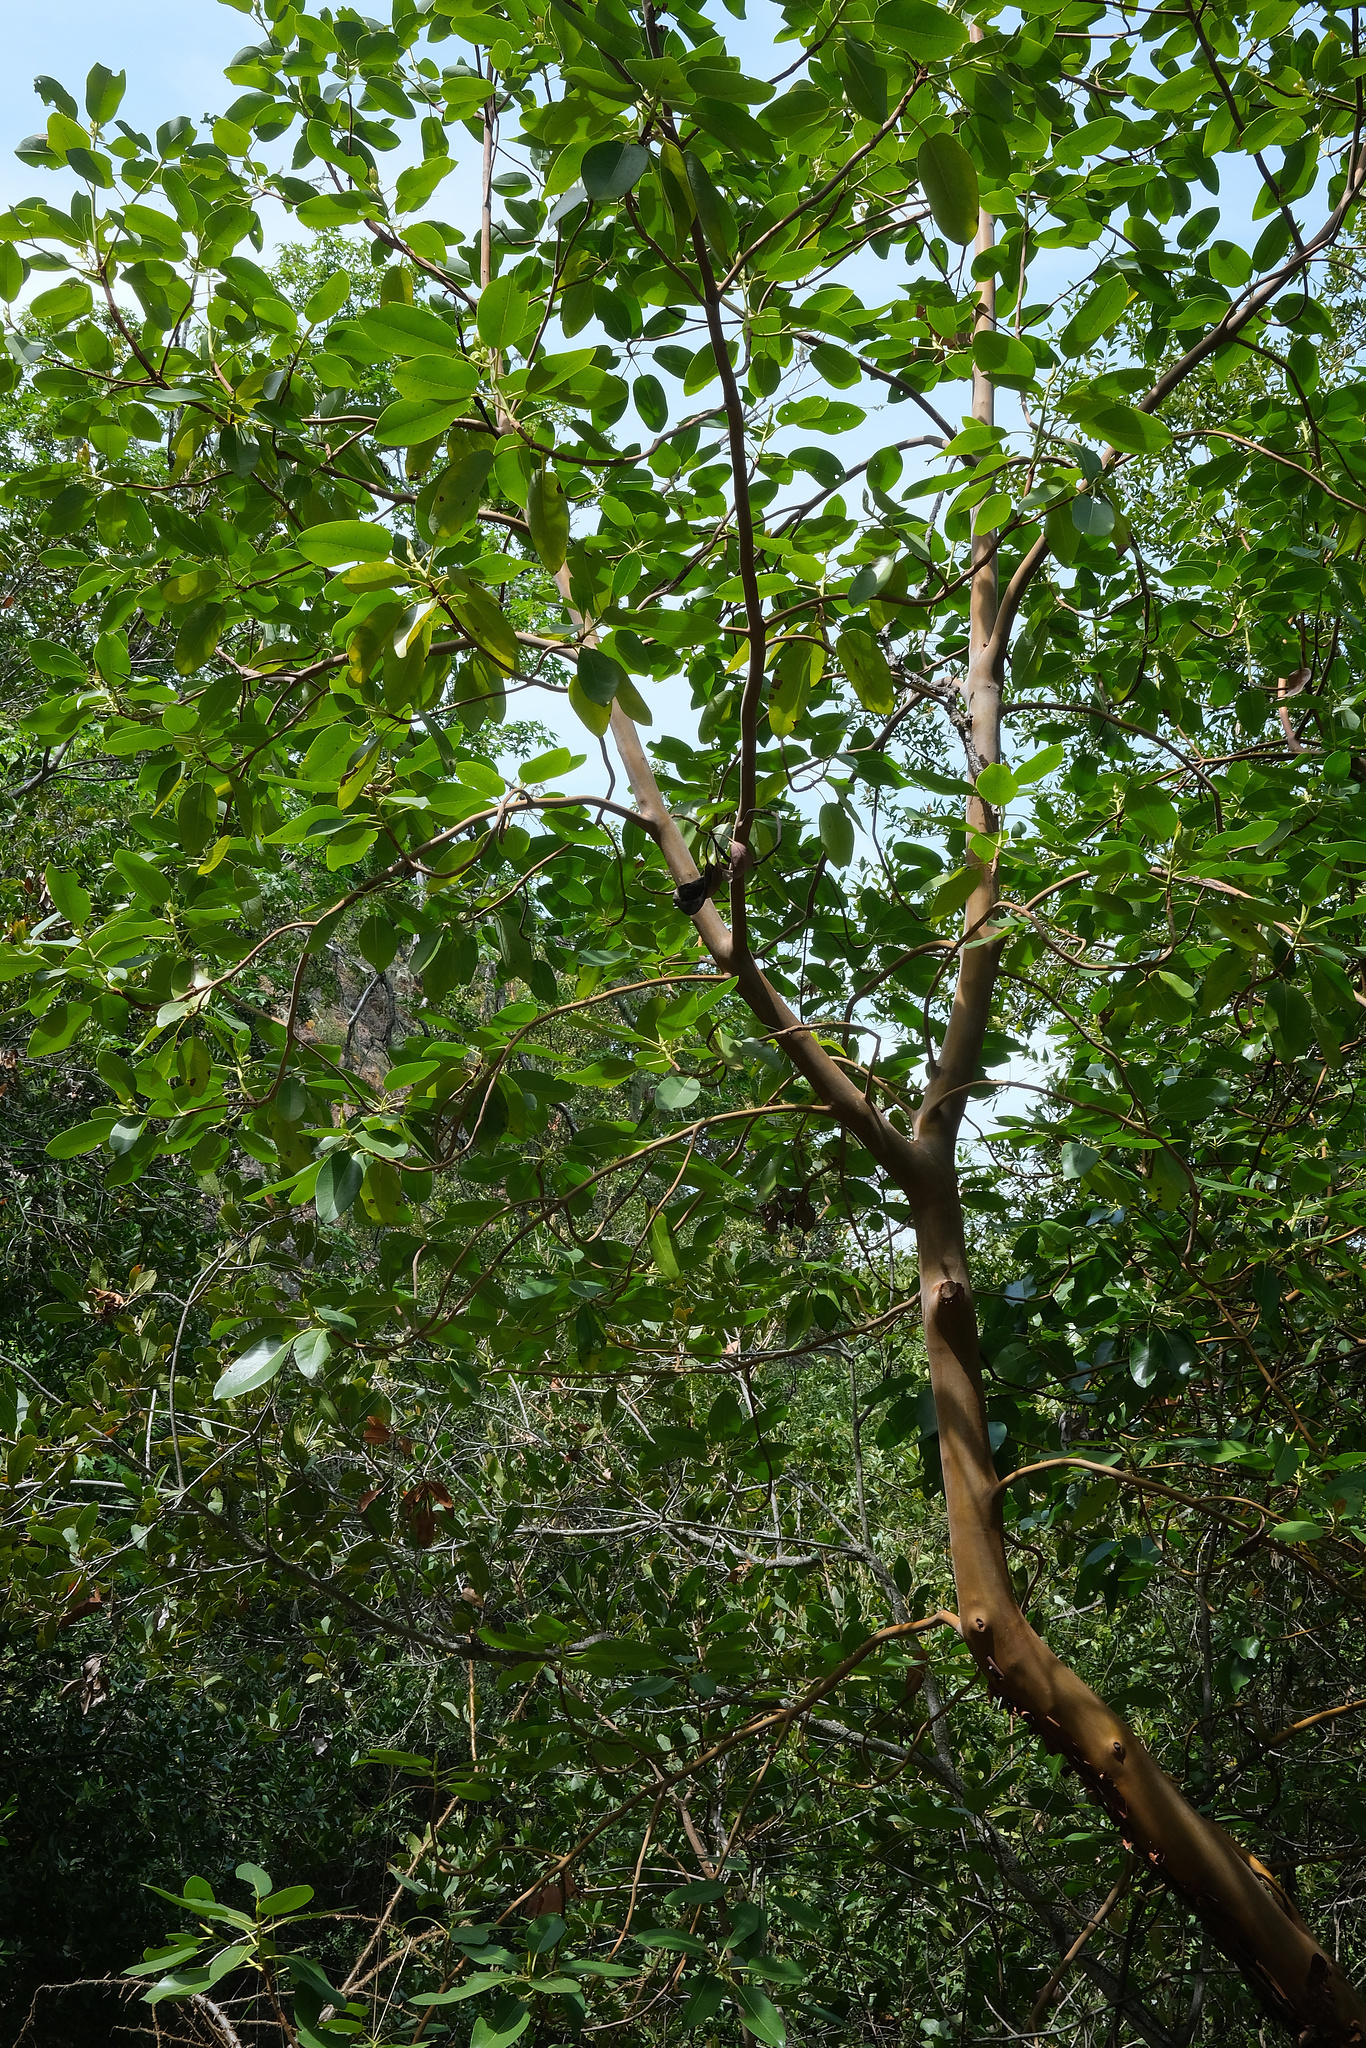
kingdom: Plantae
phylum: Tracheophyta
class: Magnoliopsida
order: Ericales
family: Ericaceae
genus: Arbutus
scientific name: Arbutus menziesii
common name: Pacific madrone
